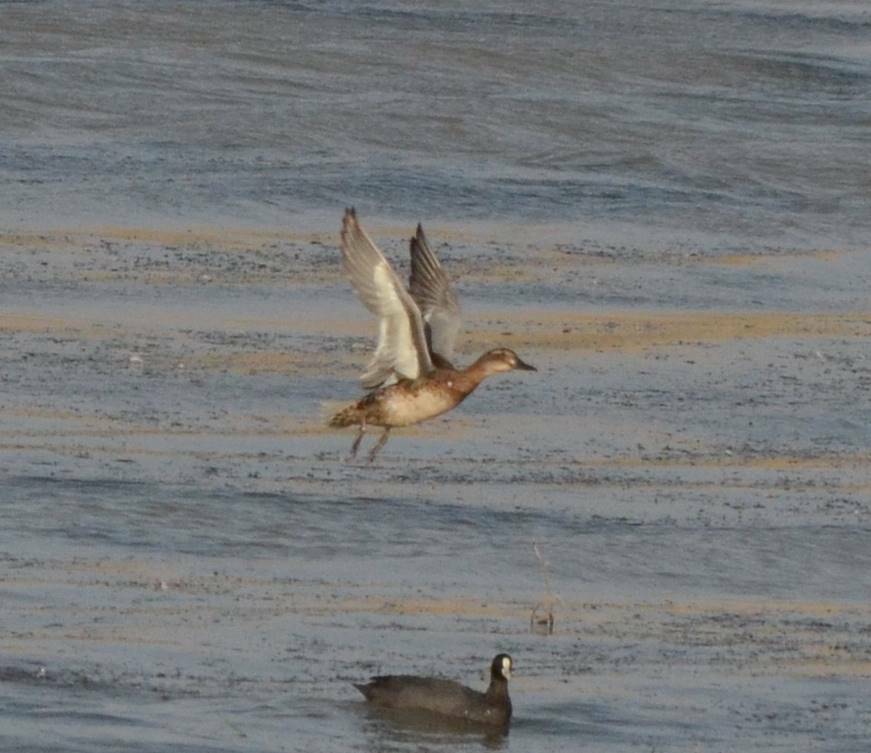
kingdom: Animalia
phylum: Chordata
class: Aves
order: Anseriformes
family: Anatidae
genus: Spatula
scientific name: Spatula querquedula
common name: Garganey
